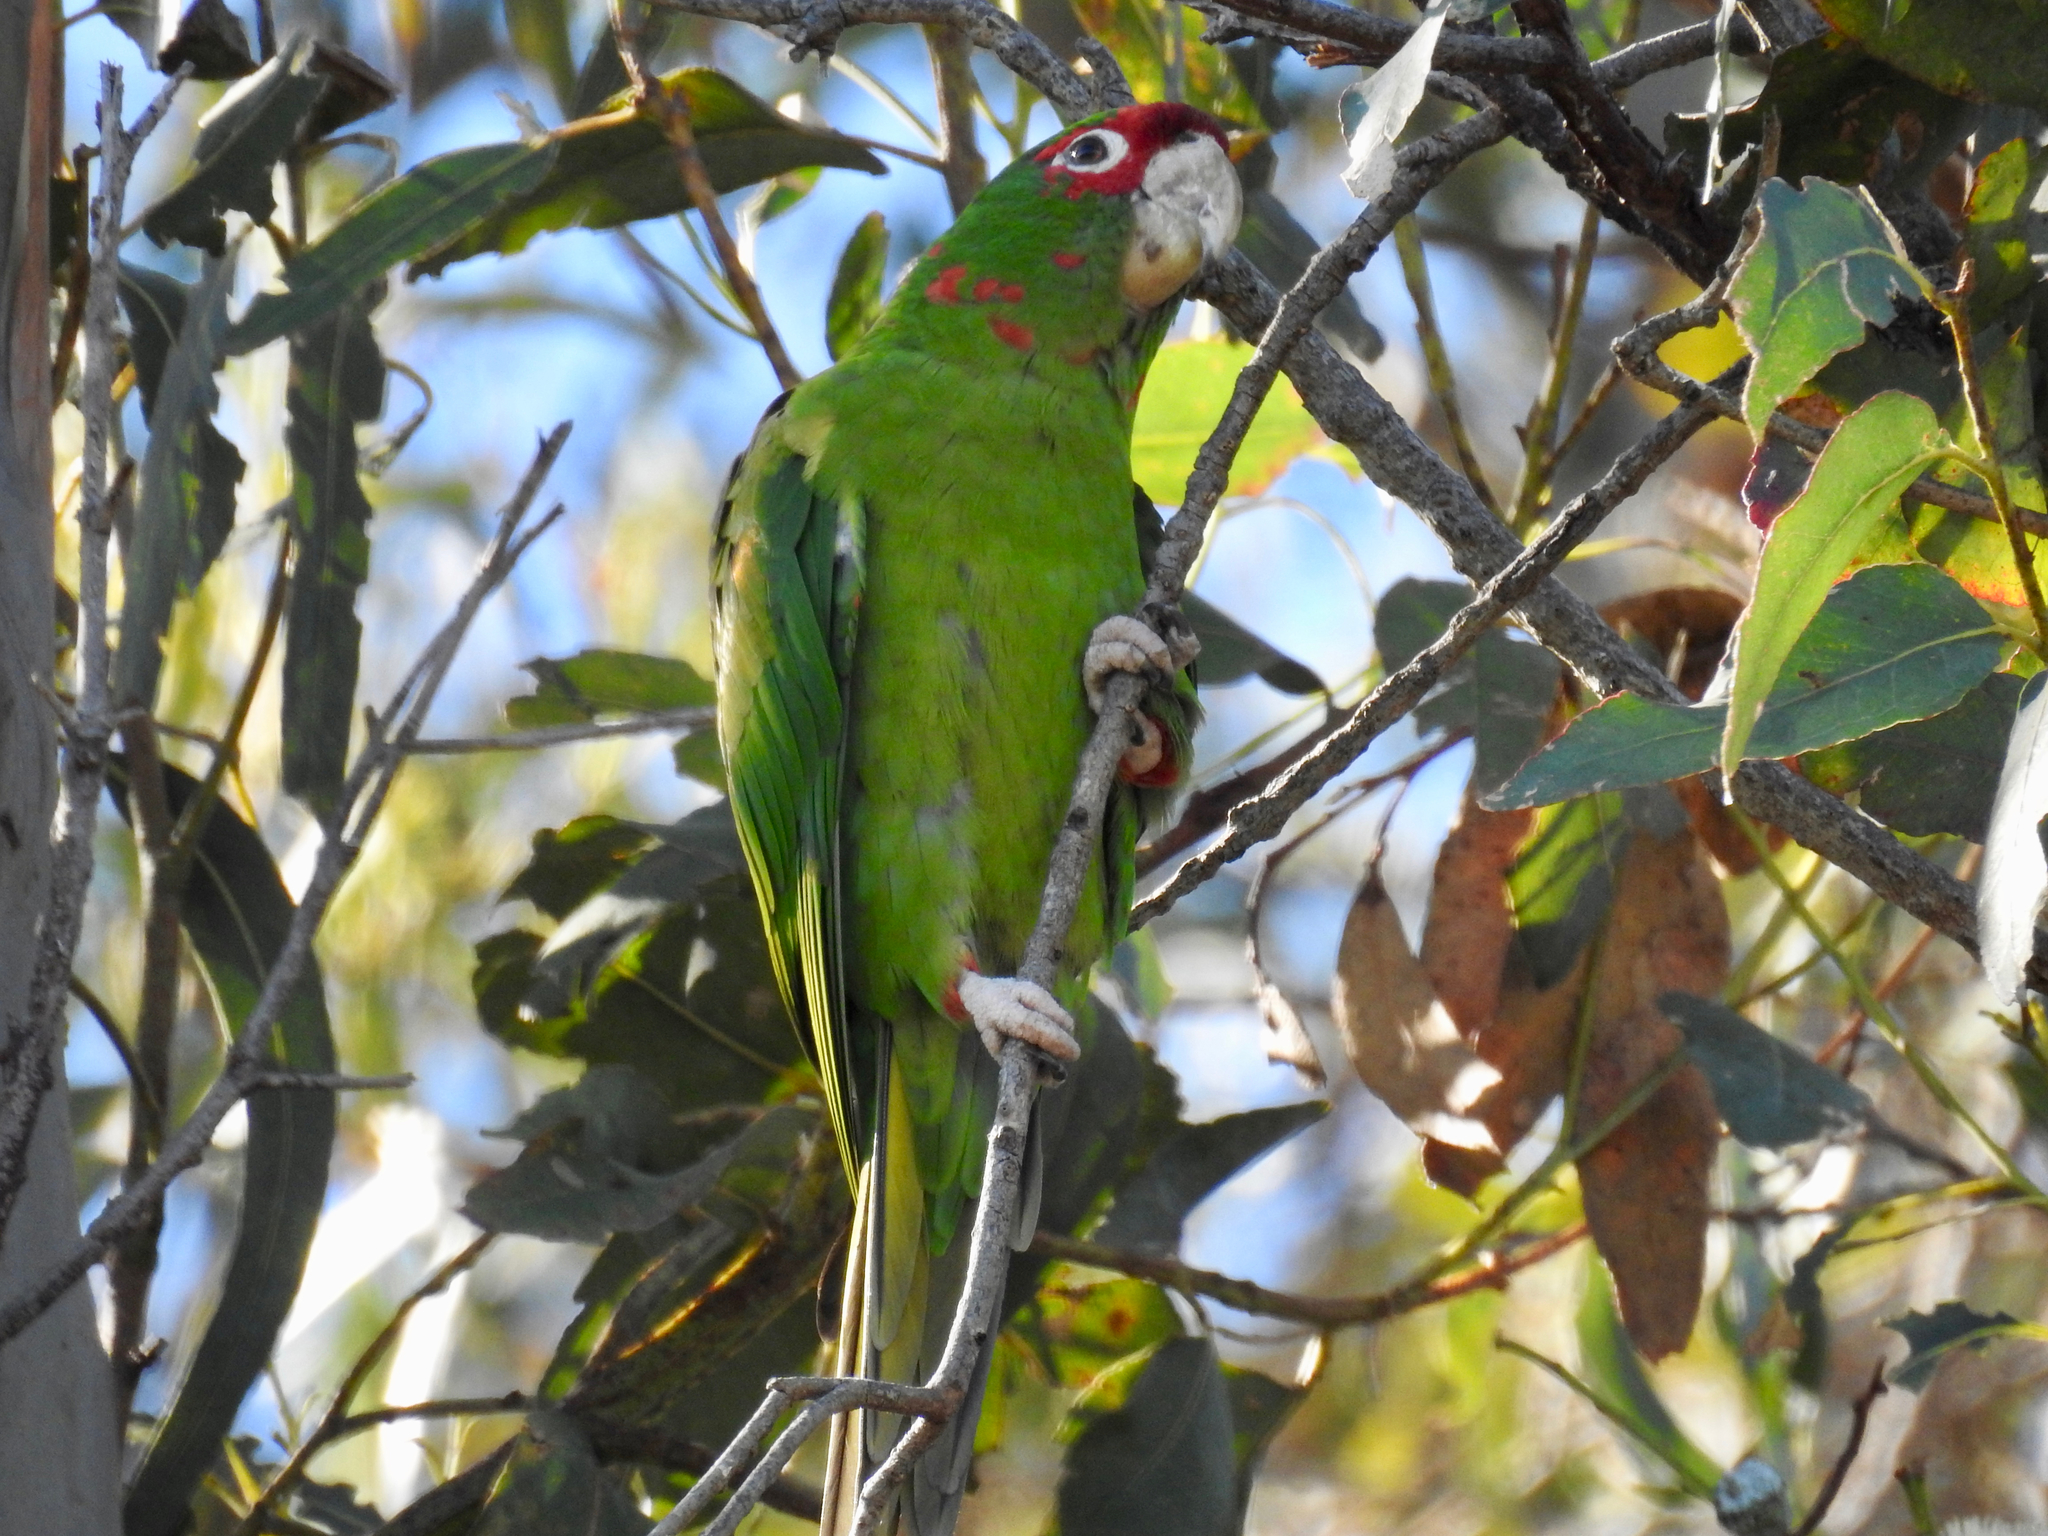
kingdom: Animalia
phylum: Chordata
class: Aves
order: Psittaciformes
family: Psittacidae
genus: Aratinga
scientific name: Aratinga mitrata
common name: Mitred parakeet
